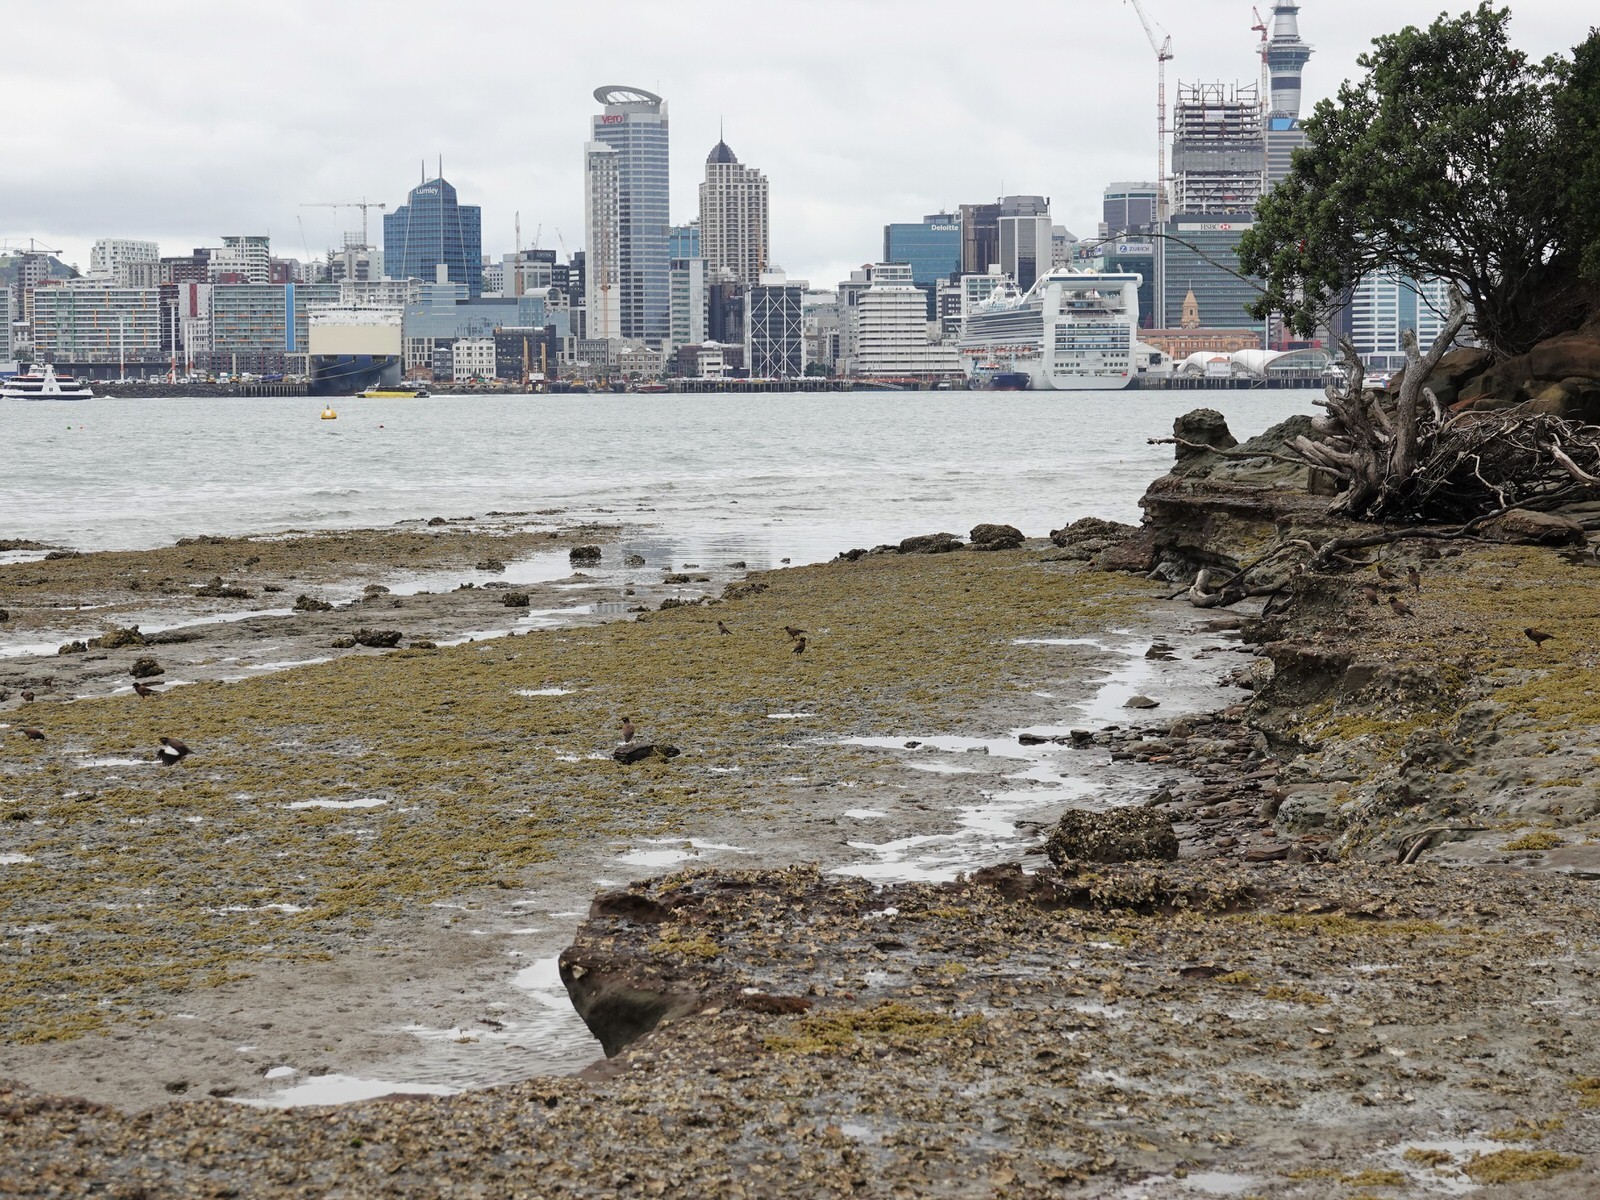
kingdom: Animalia
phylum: Chordata
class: Aves
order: Passeriformes
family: Sturnidae
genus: Acridotheres
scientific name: Acridotheres tristis
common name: Common myna
